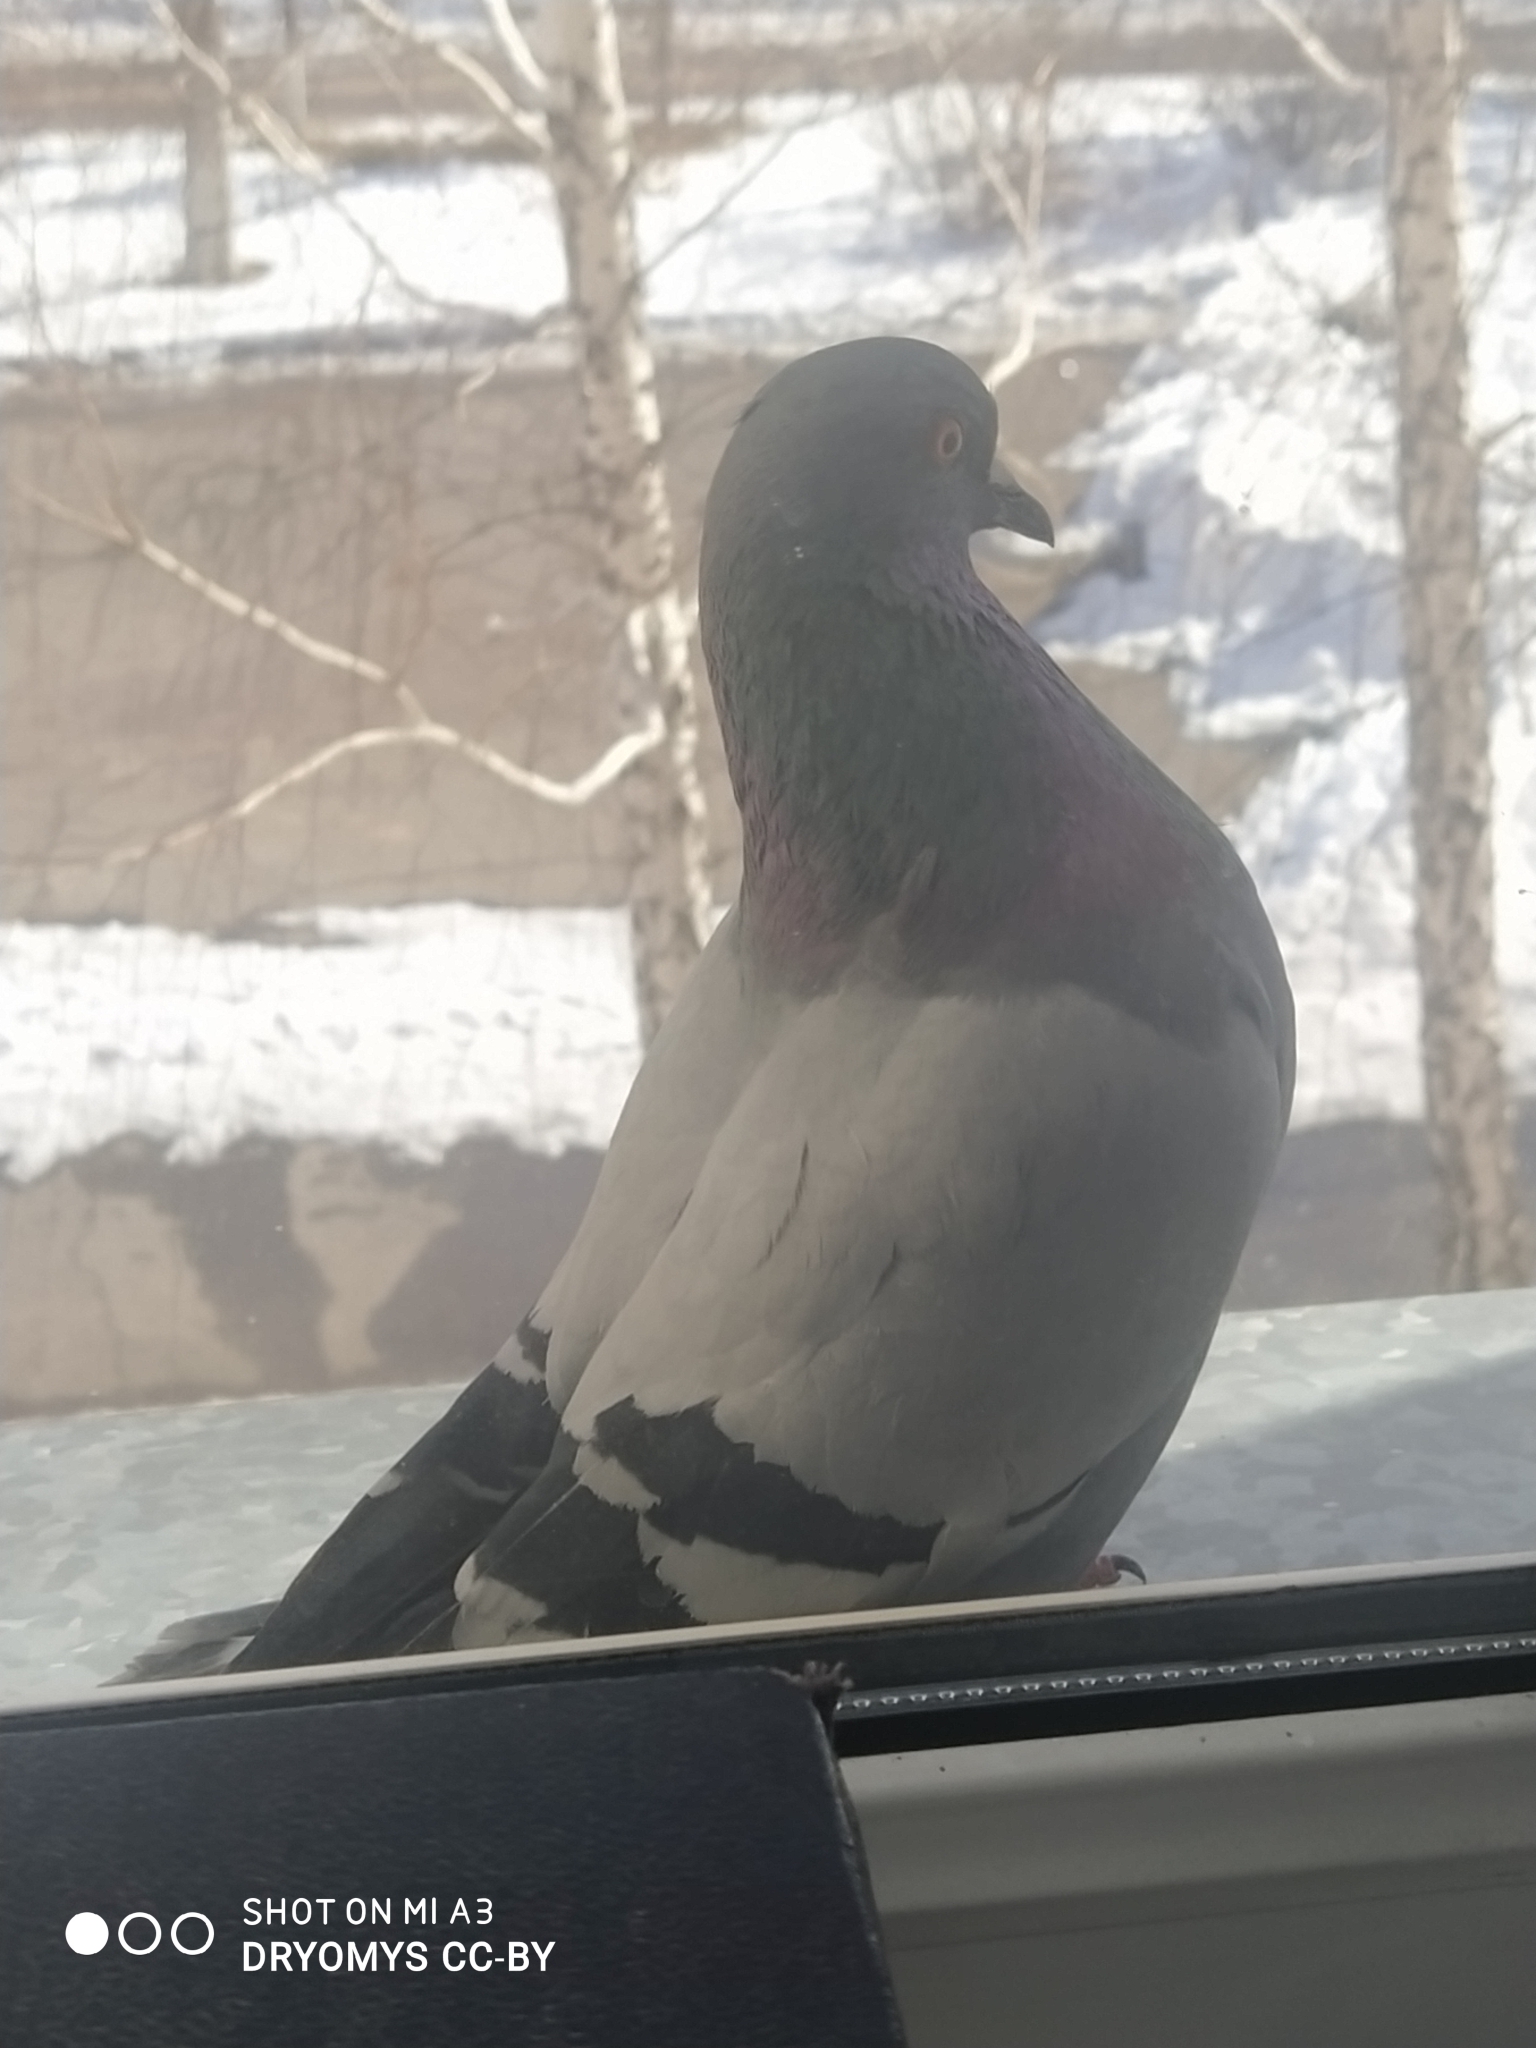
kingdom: Animalia
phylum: Chordata
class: Aves
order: Columbiformes
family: Columbidae
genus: Columba
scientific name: Columba livia
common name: Rock pigeon
